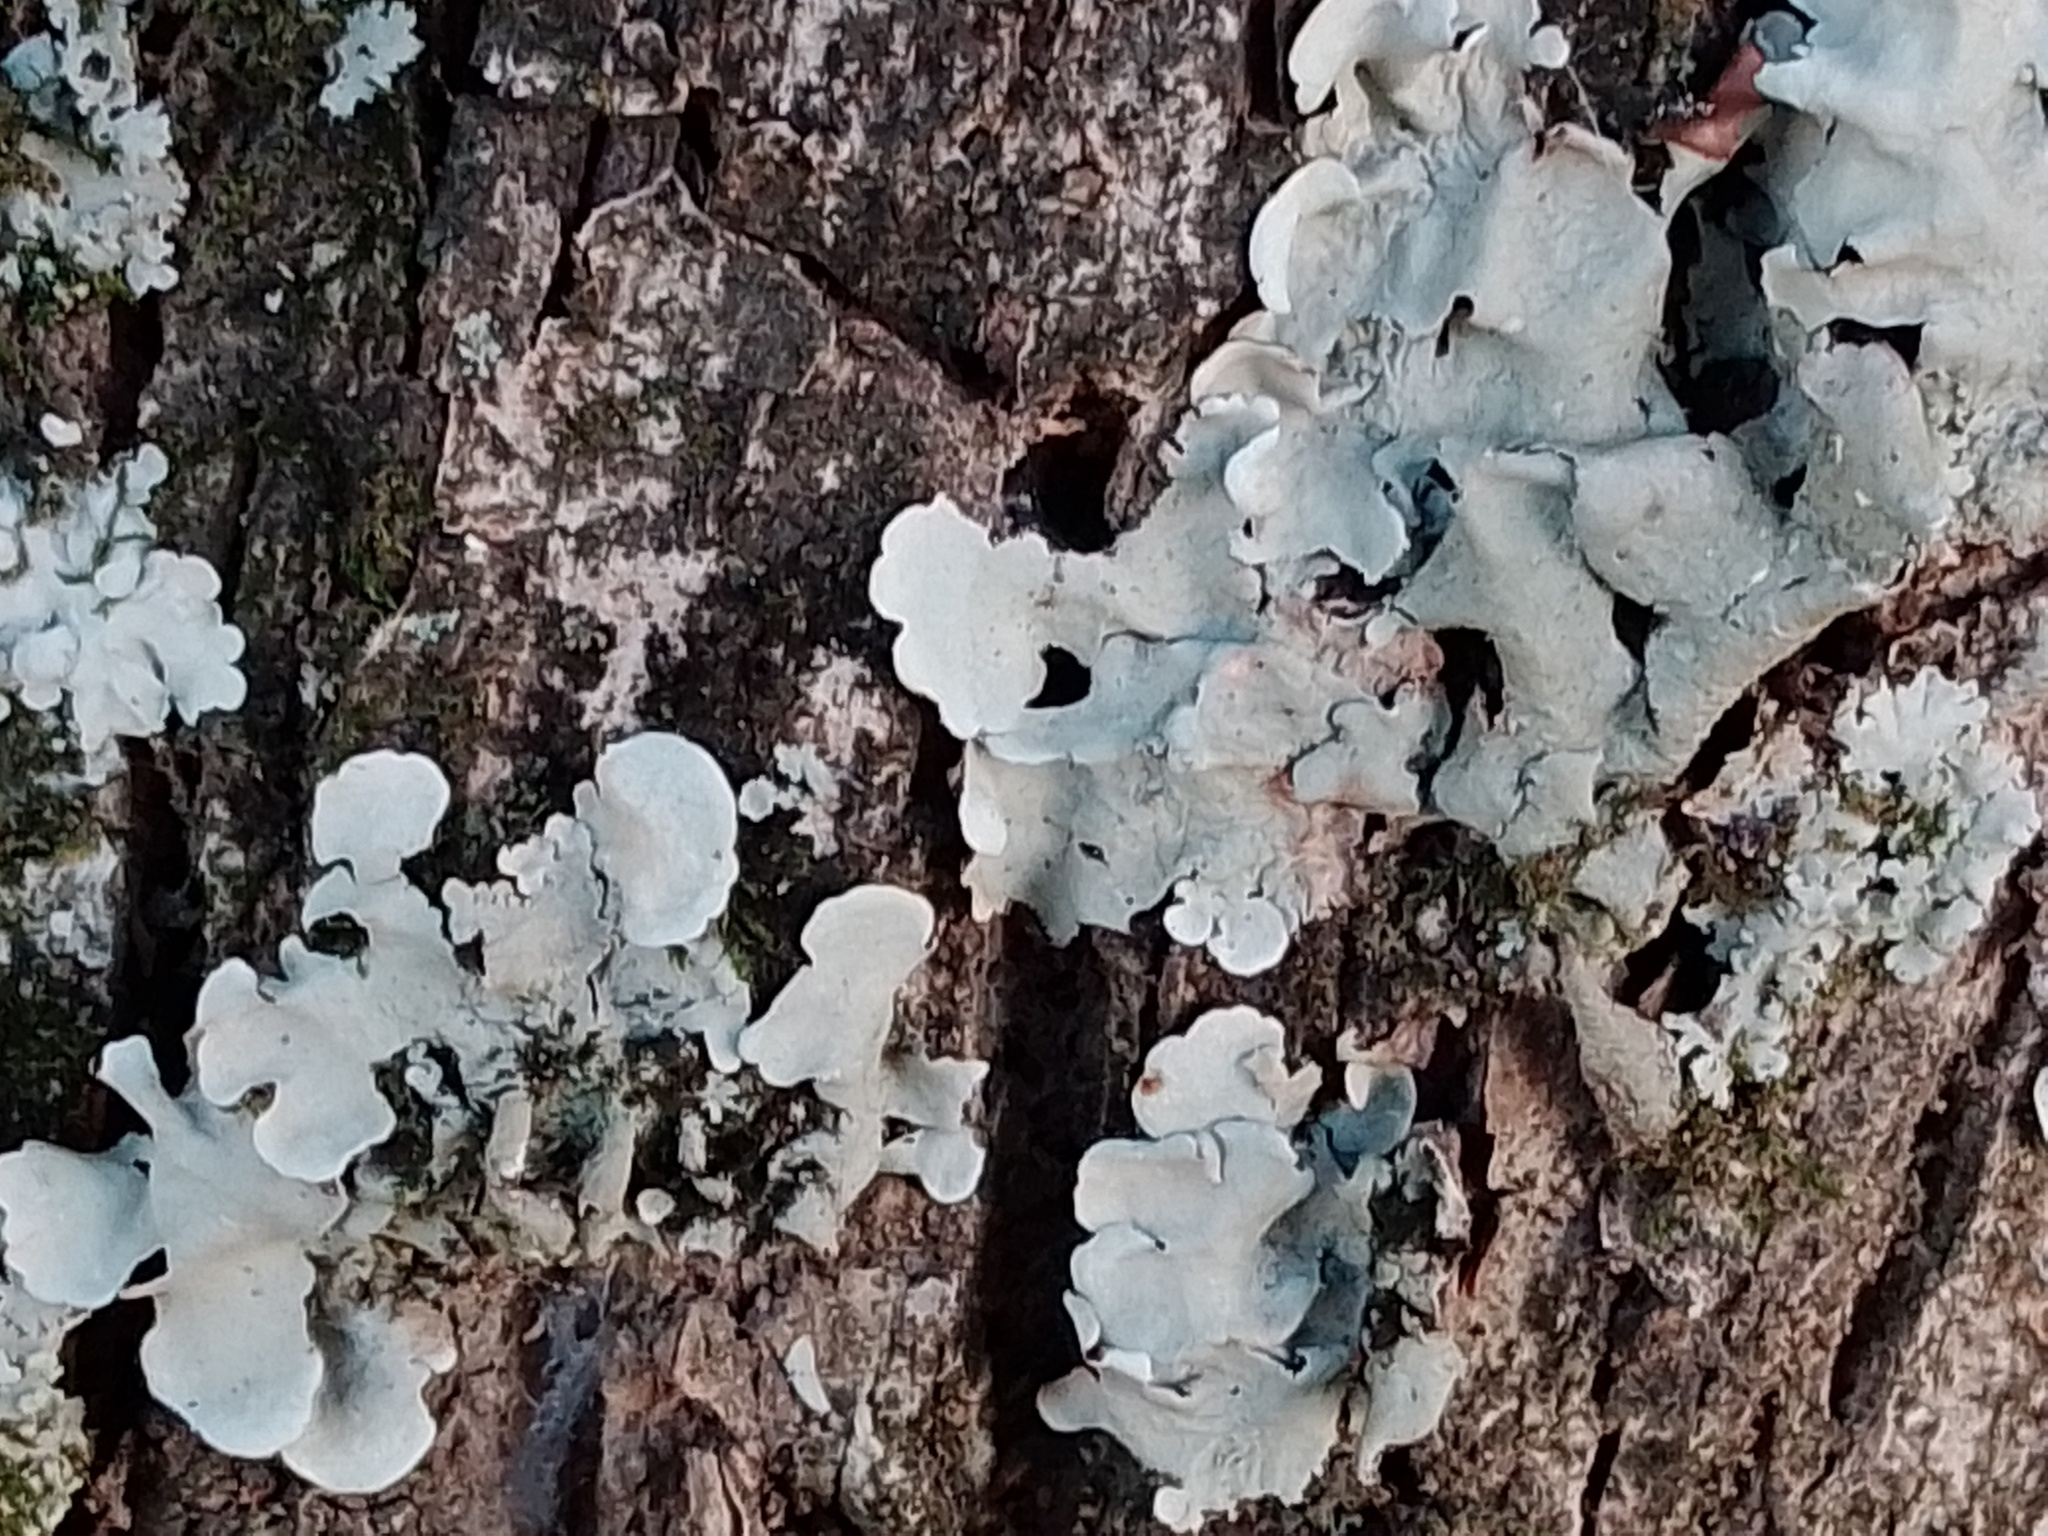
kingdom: Fungi
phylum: Ascomycota
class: Lecanoromycetes
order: Lecanorales
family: Parmeliaceae
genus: Parmotrema
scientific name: Parmotrema reticulatum
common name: Black sheet lichen
